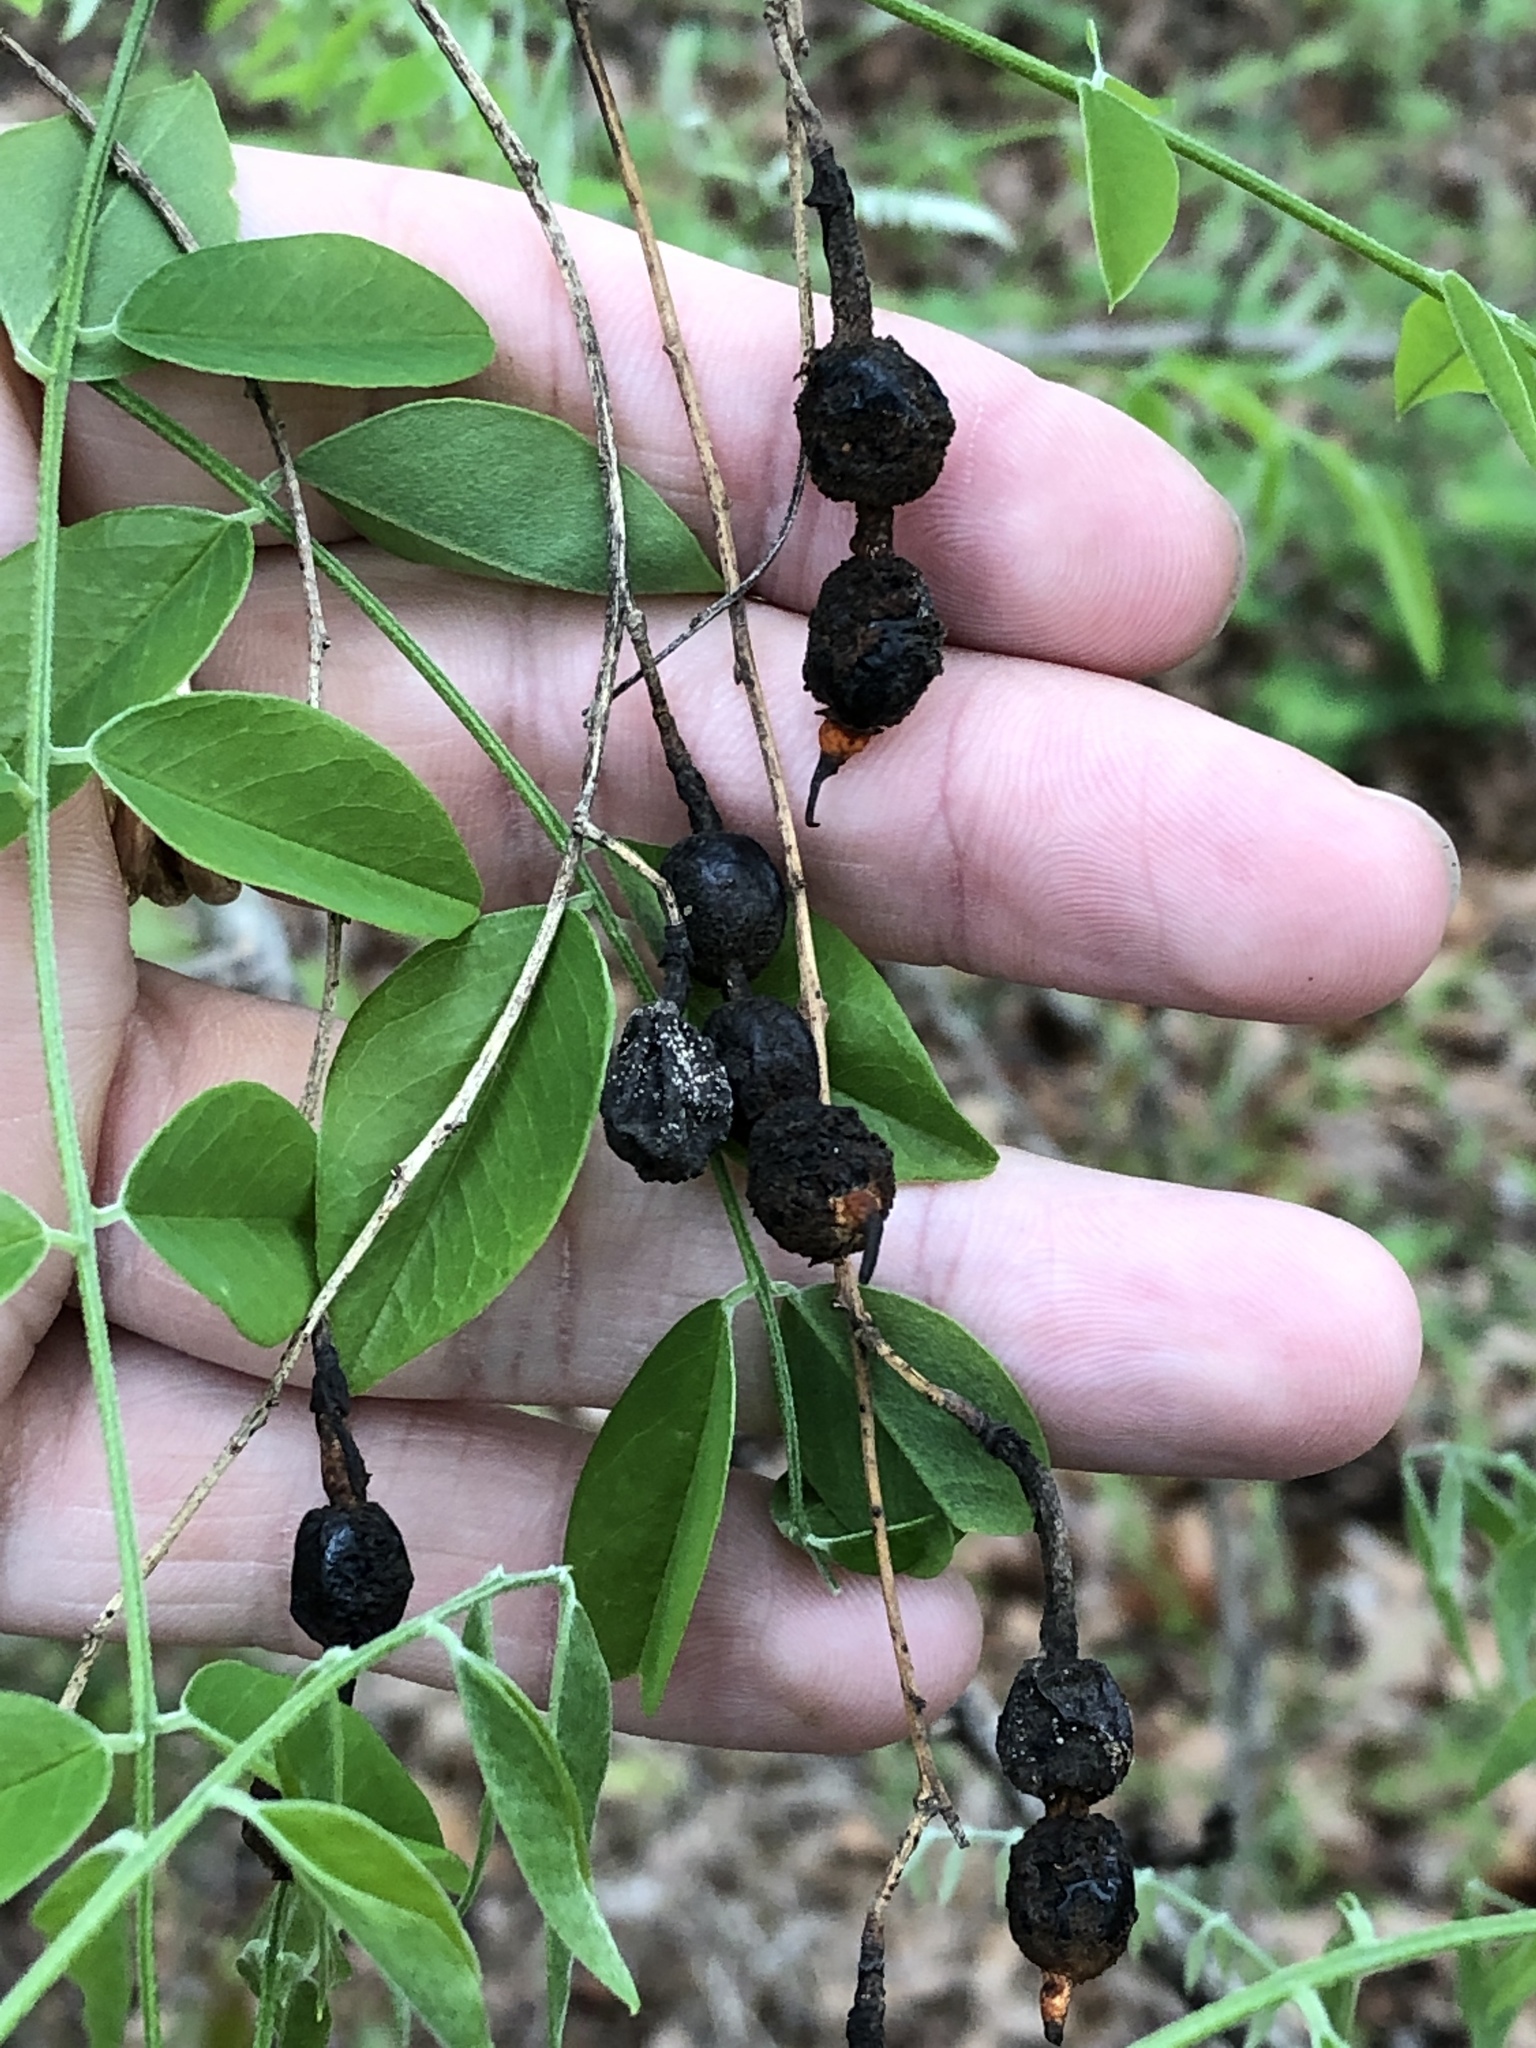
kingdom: Plantae
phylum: Tracheophyta
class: Magnoliopsida
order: Fabales
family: Fabaceae
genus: Styphnolobium
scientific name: Styphnolobium affine
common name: Texas sophora
